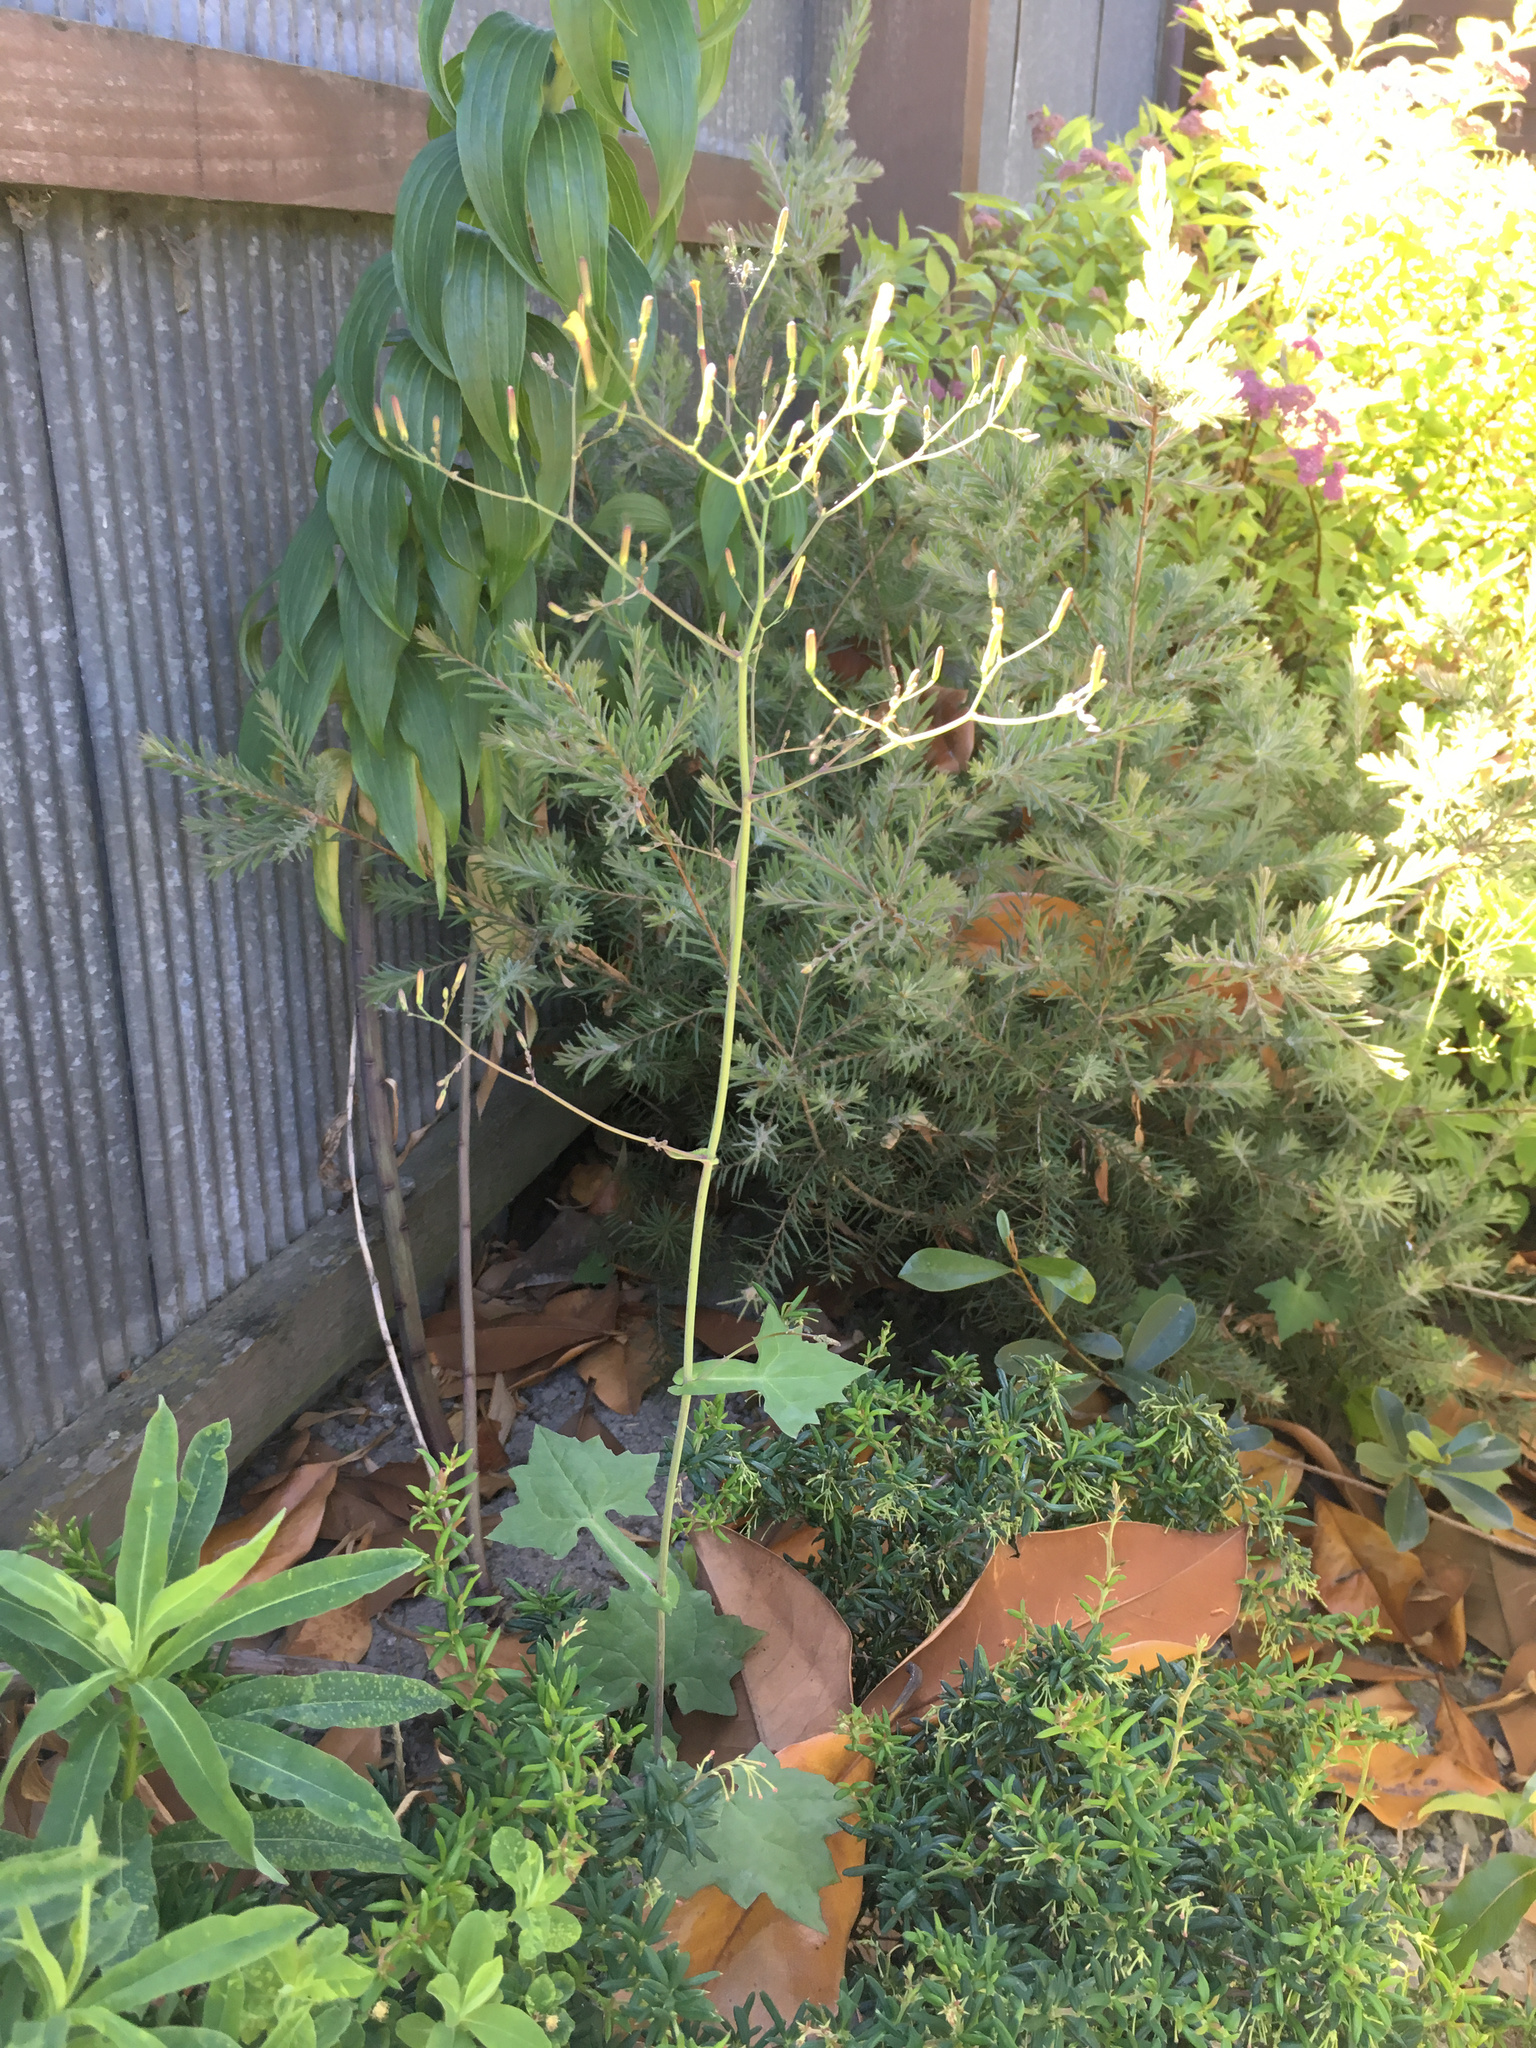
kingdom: Plantae
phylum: Tracheophyta
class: Magnoliopsida
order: Asterales
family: Asteraceae
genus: Mycelis
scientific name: Mycelis muralis
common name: Wall lettuce
